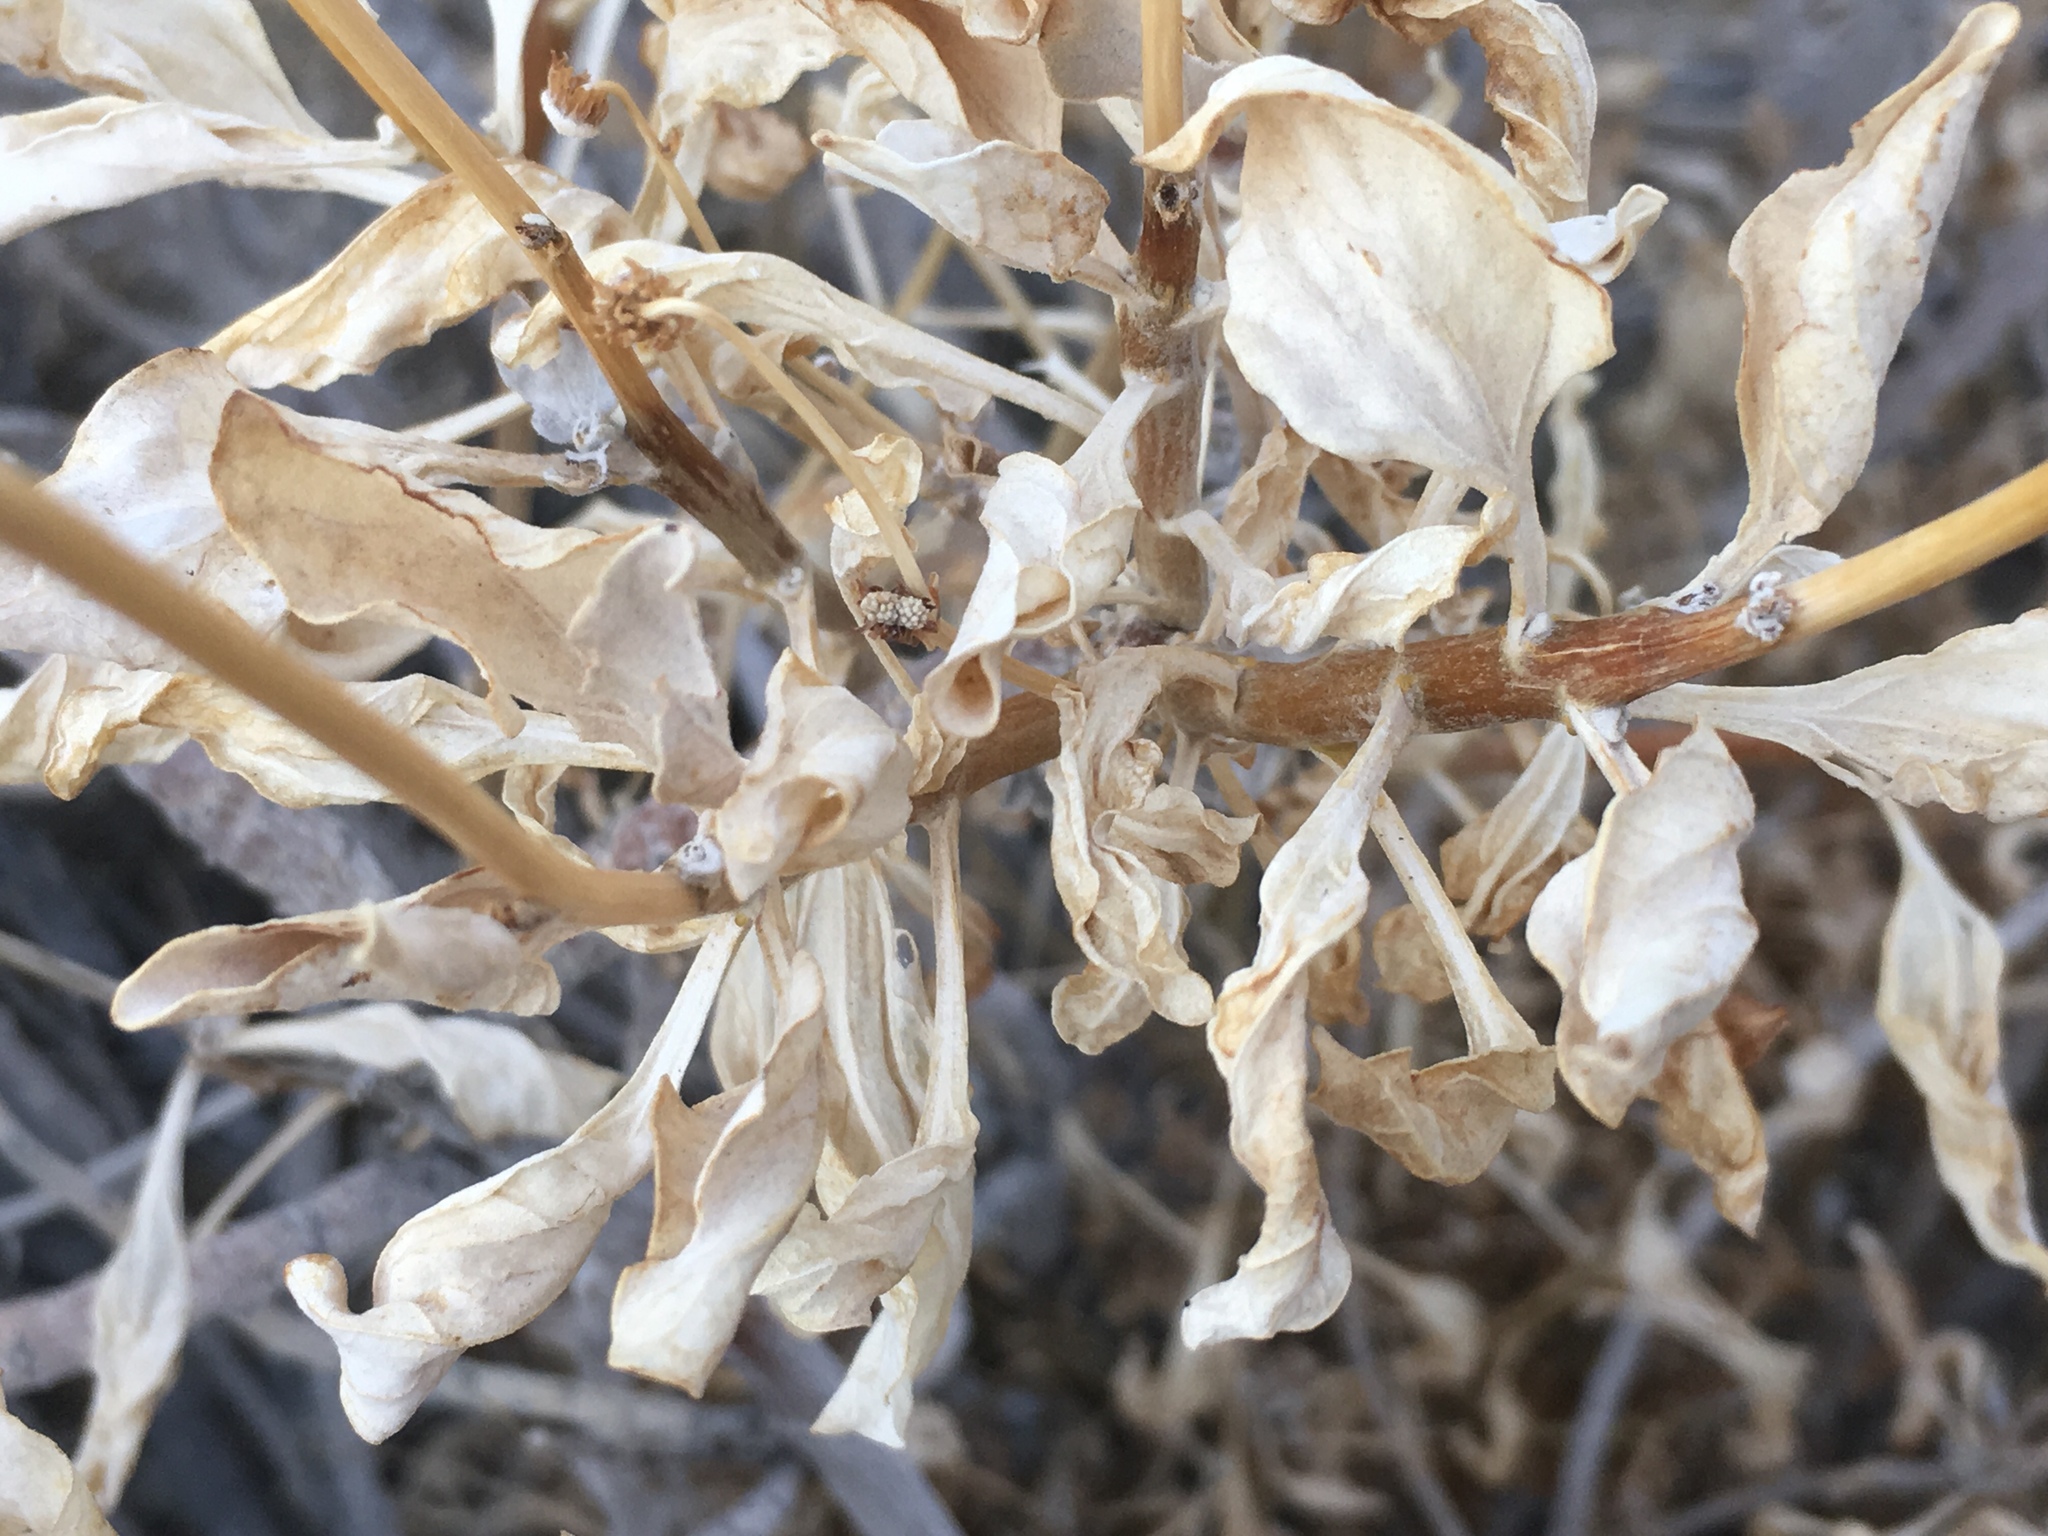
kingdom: Plantae
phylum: Tracheophyta
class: Magnoliopsida
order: Asterales
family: Asteraceae
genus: Encelia
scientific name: Encelia farinosa
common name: Brittlebush
